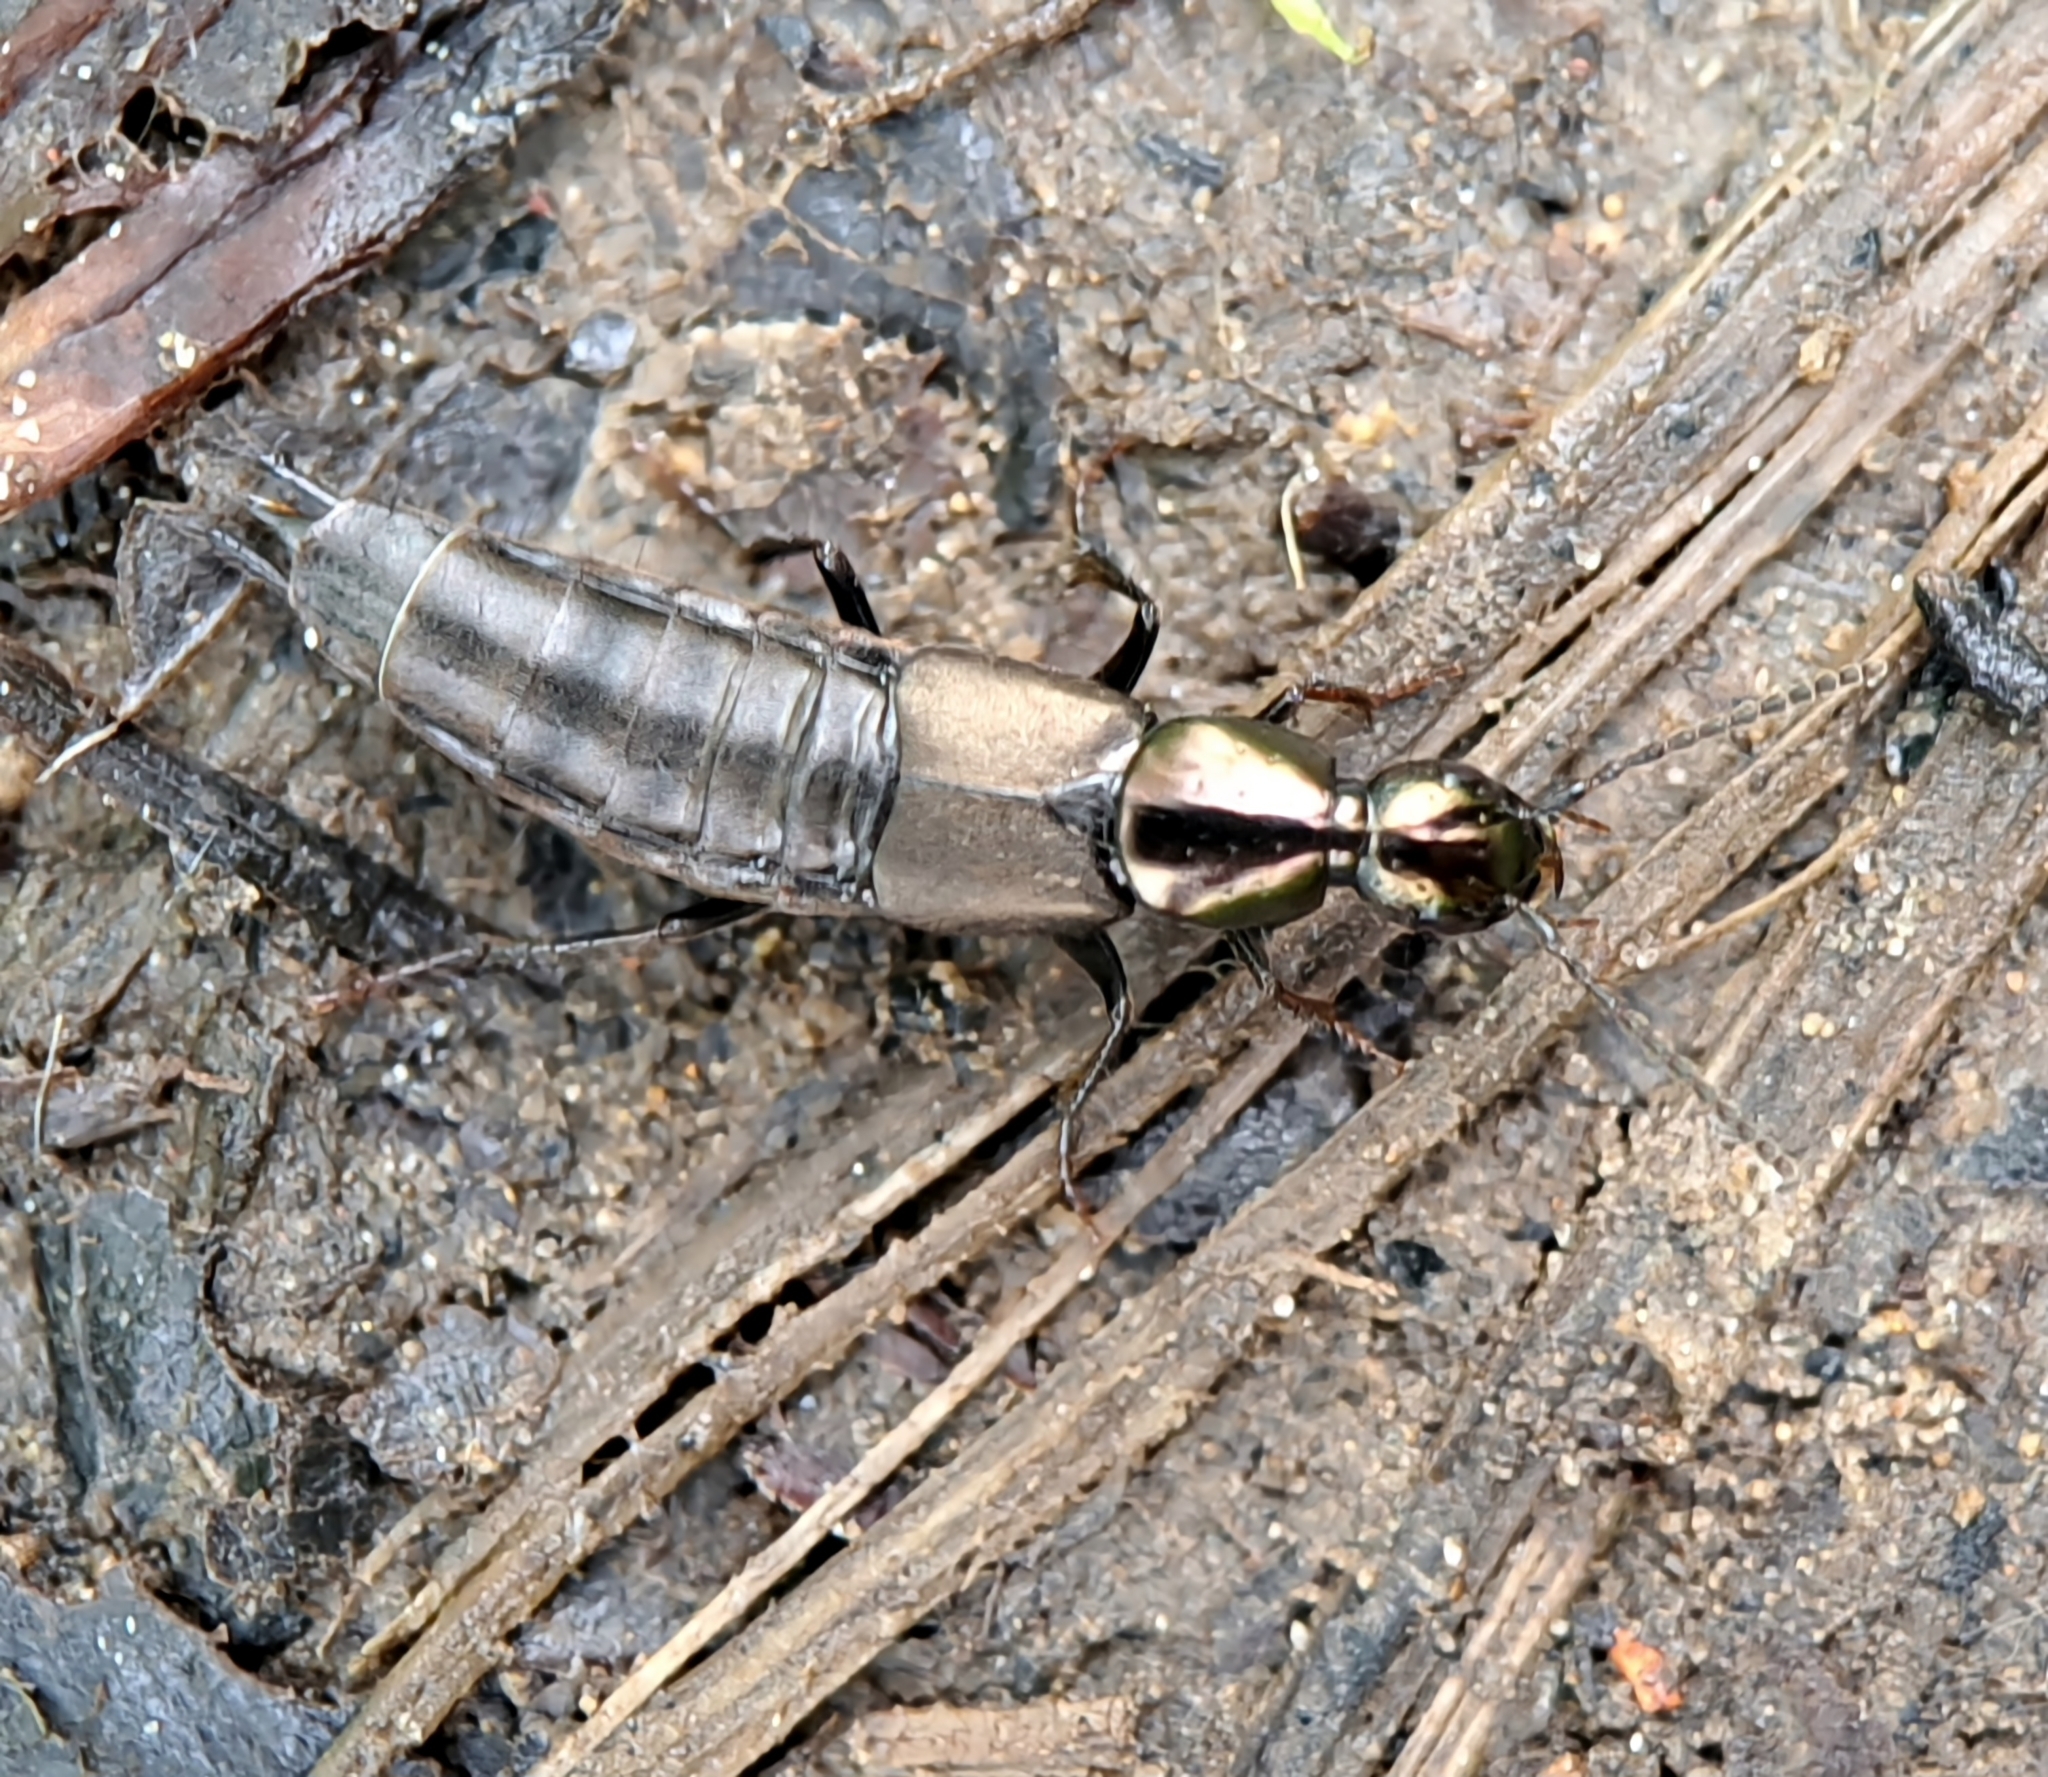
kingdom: Animalia
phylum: Arthropoda
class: Insecta
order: Coleoptera
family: Staphylinidae
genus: Philonthus
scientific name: Philonthus decorus
